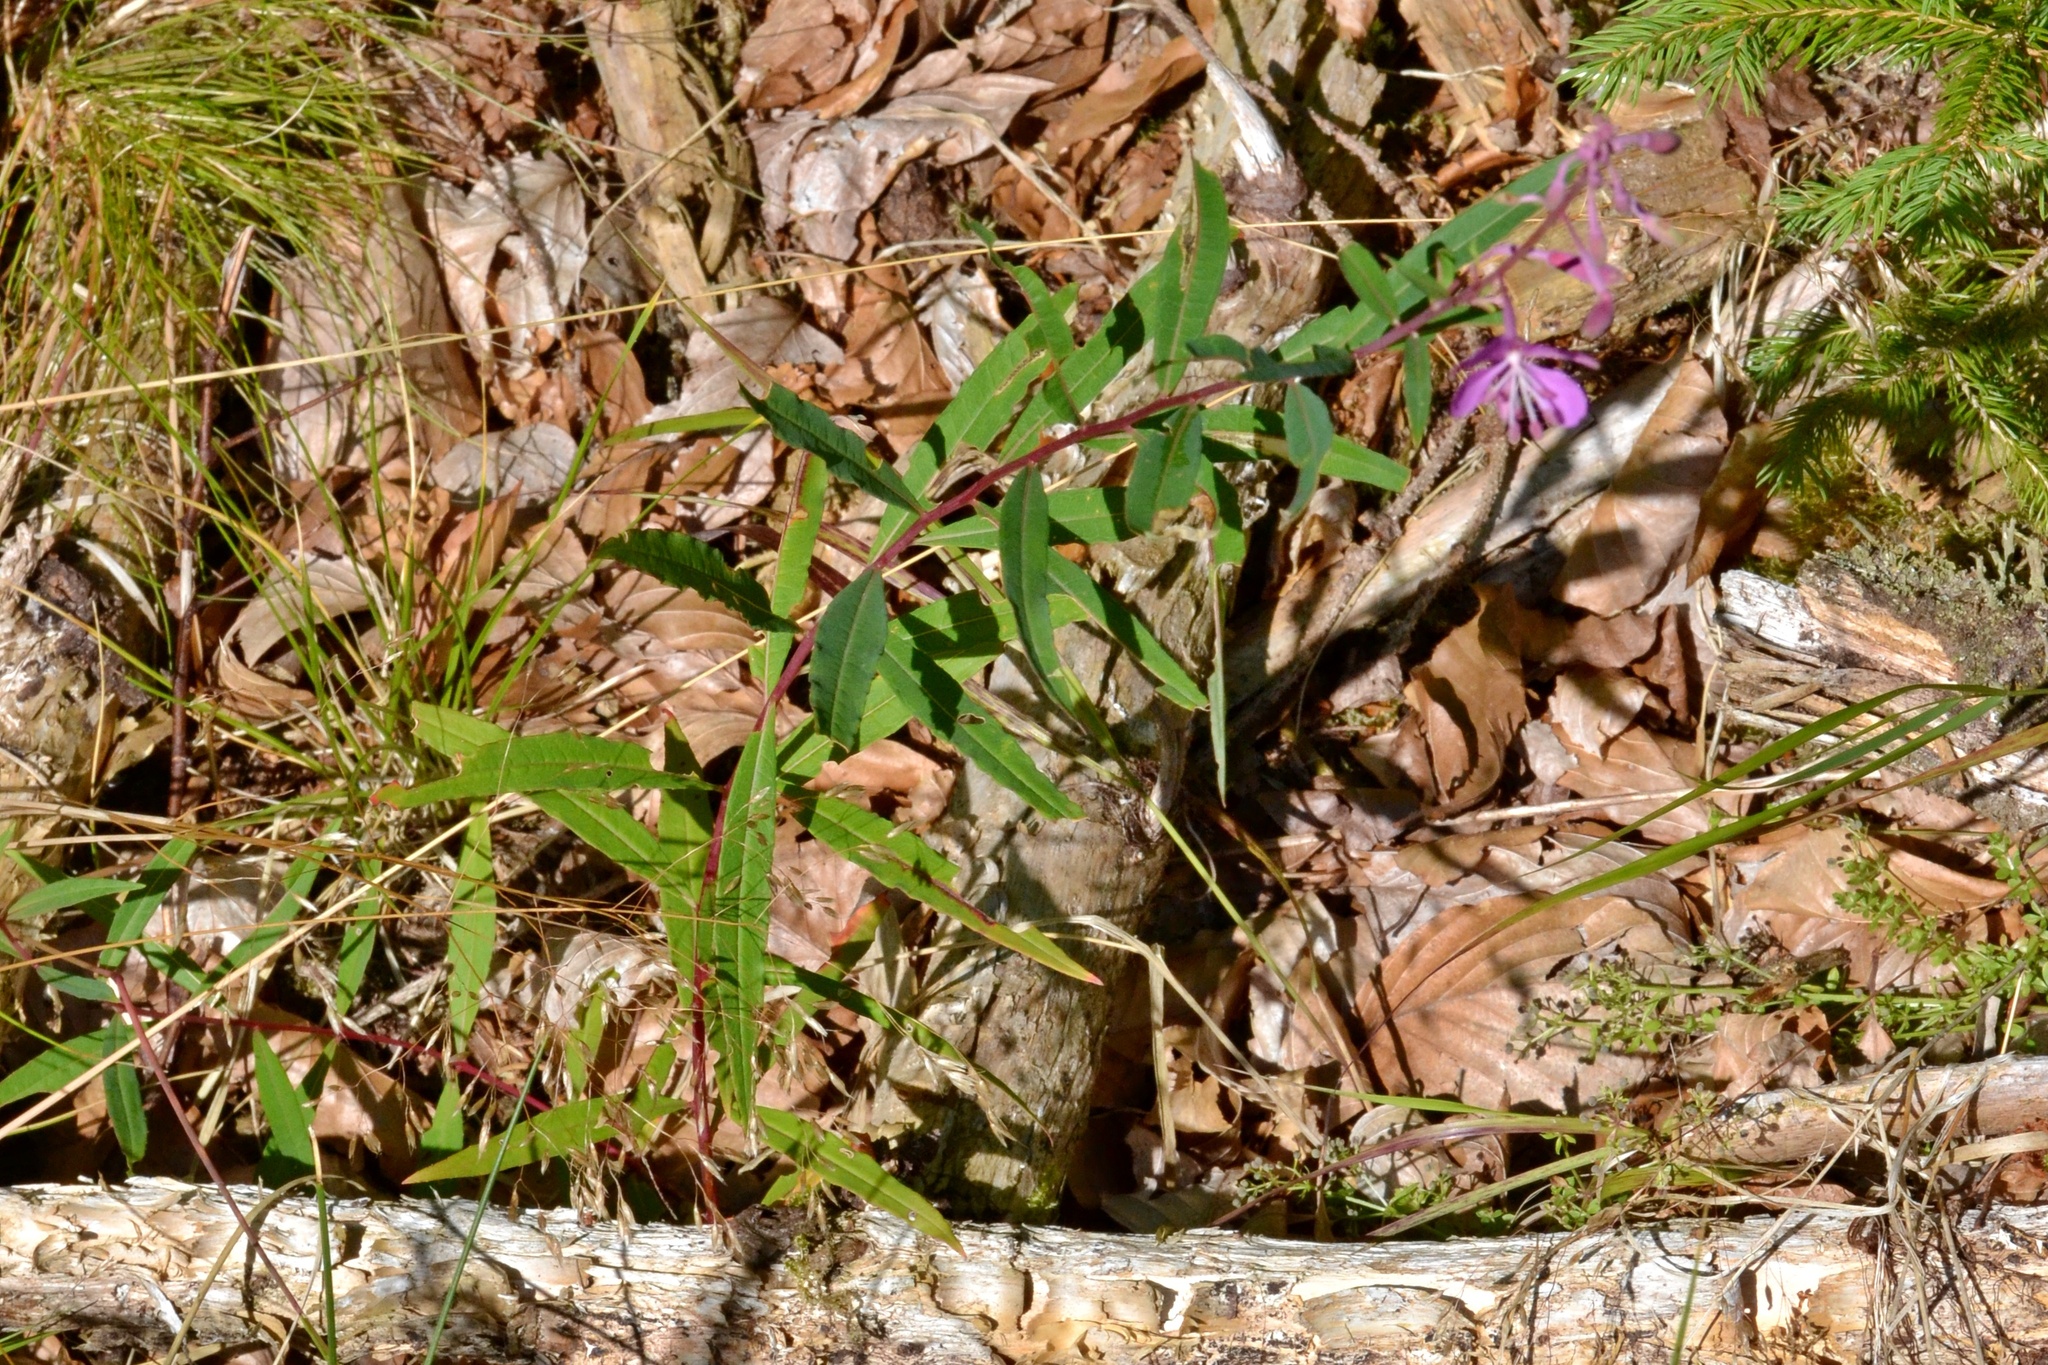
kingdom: Plantae
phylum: Tracheophyta
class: Magnoliopsida
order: Myrtales
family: Onagraceae
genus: Chamaenerion
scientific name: Chamaenerion angustifolium
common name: Fireweed
